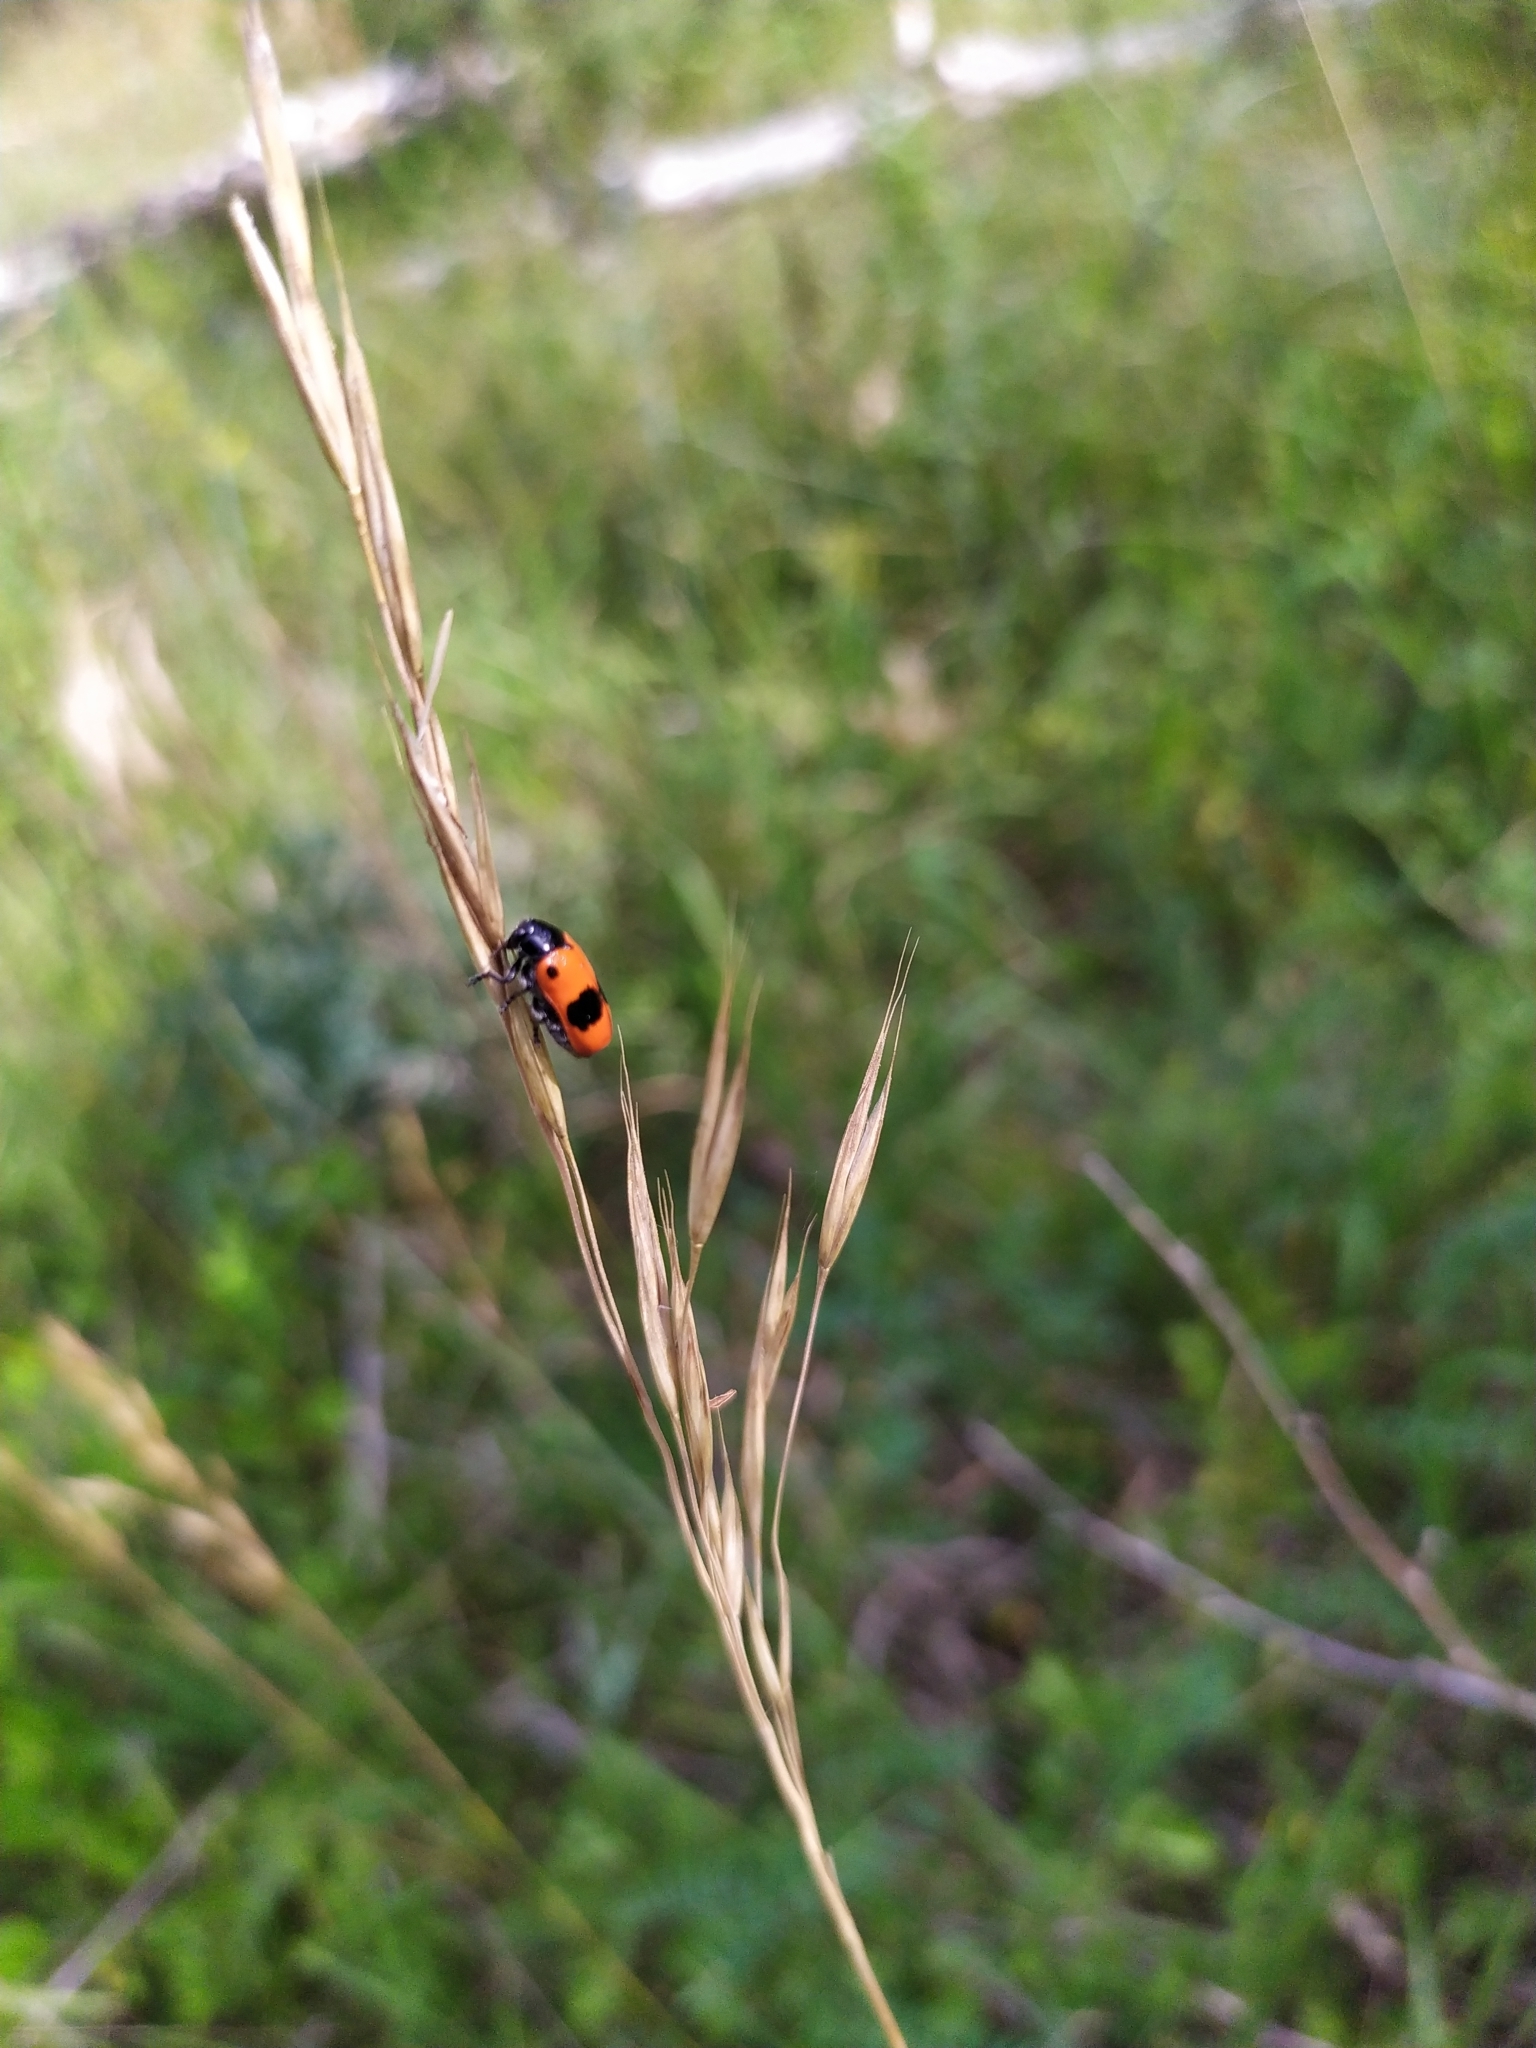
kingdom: Animalia
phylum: Arthropoda
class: Insecta
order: Coleoptera
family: Chrysomelidae
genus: Clytra
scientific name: Clytra laeviuscula
